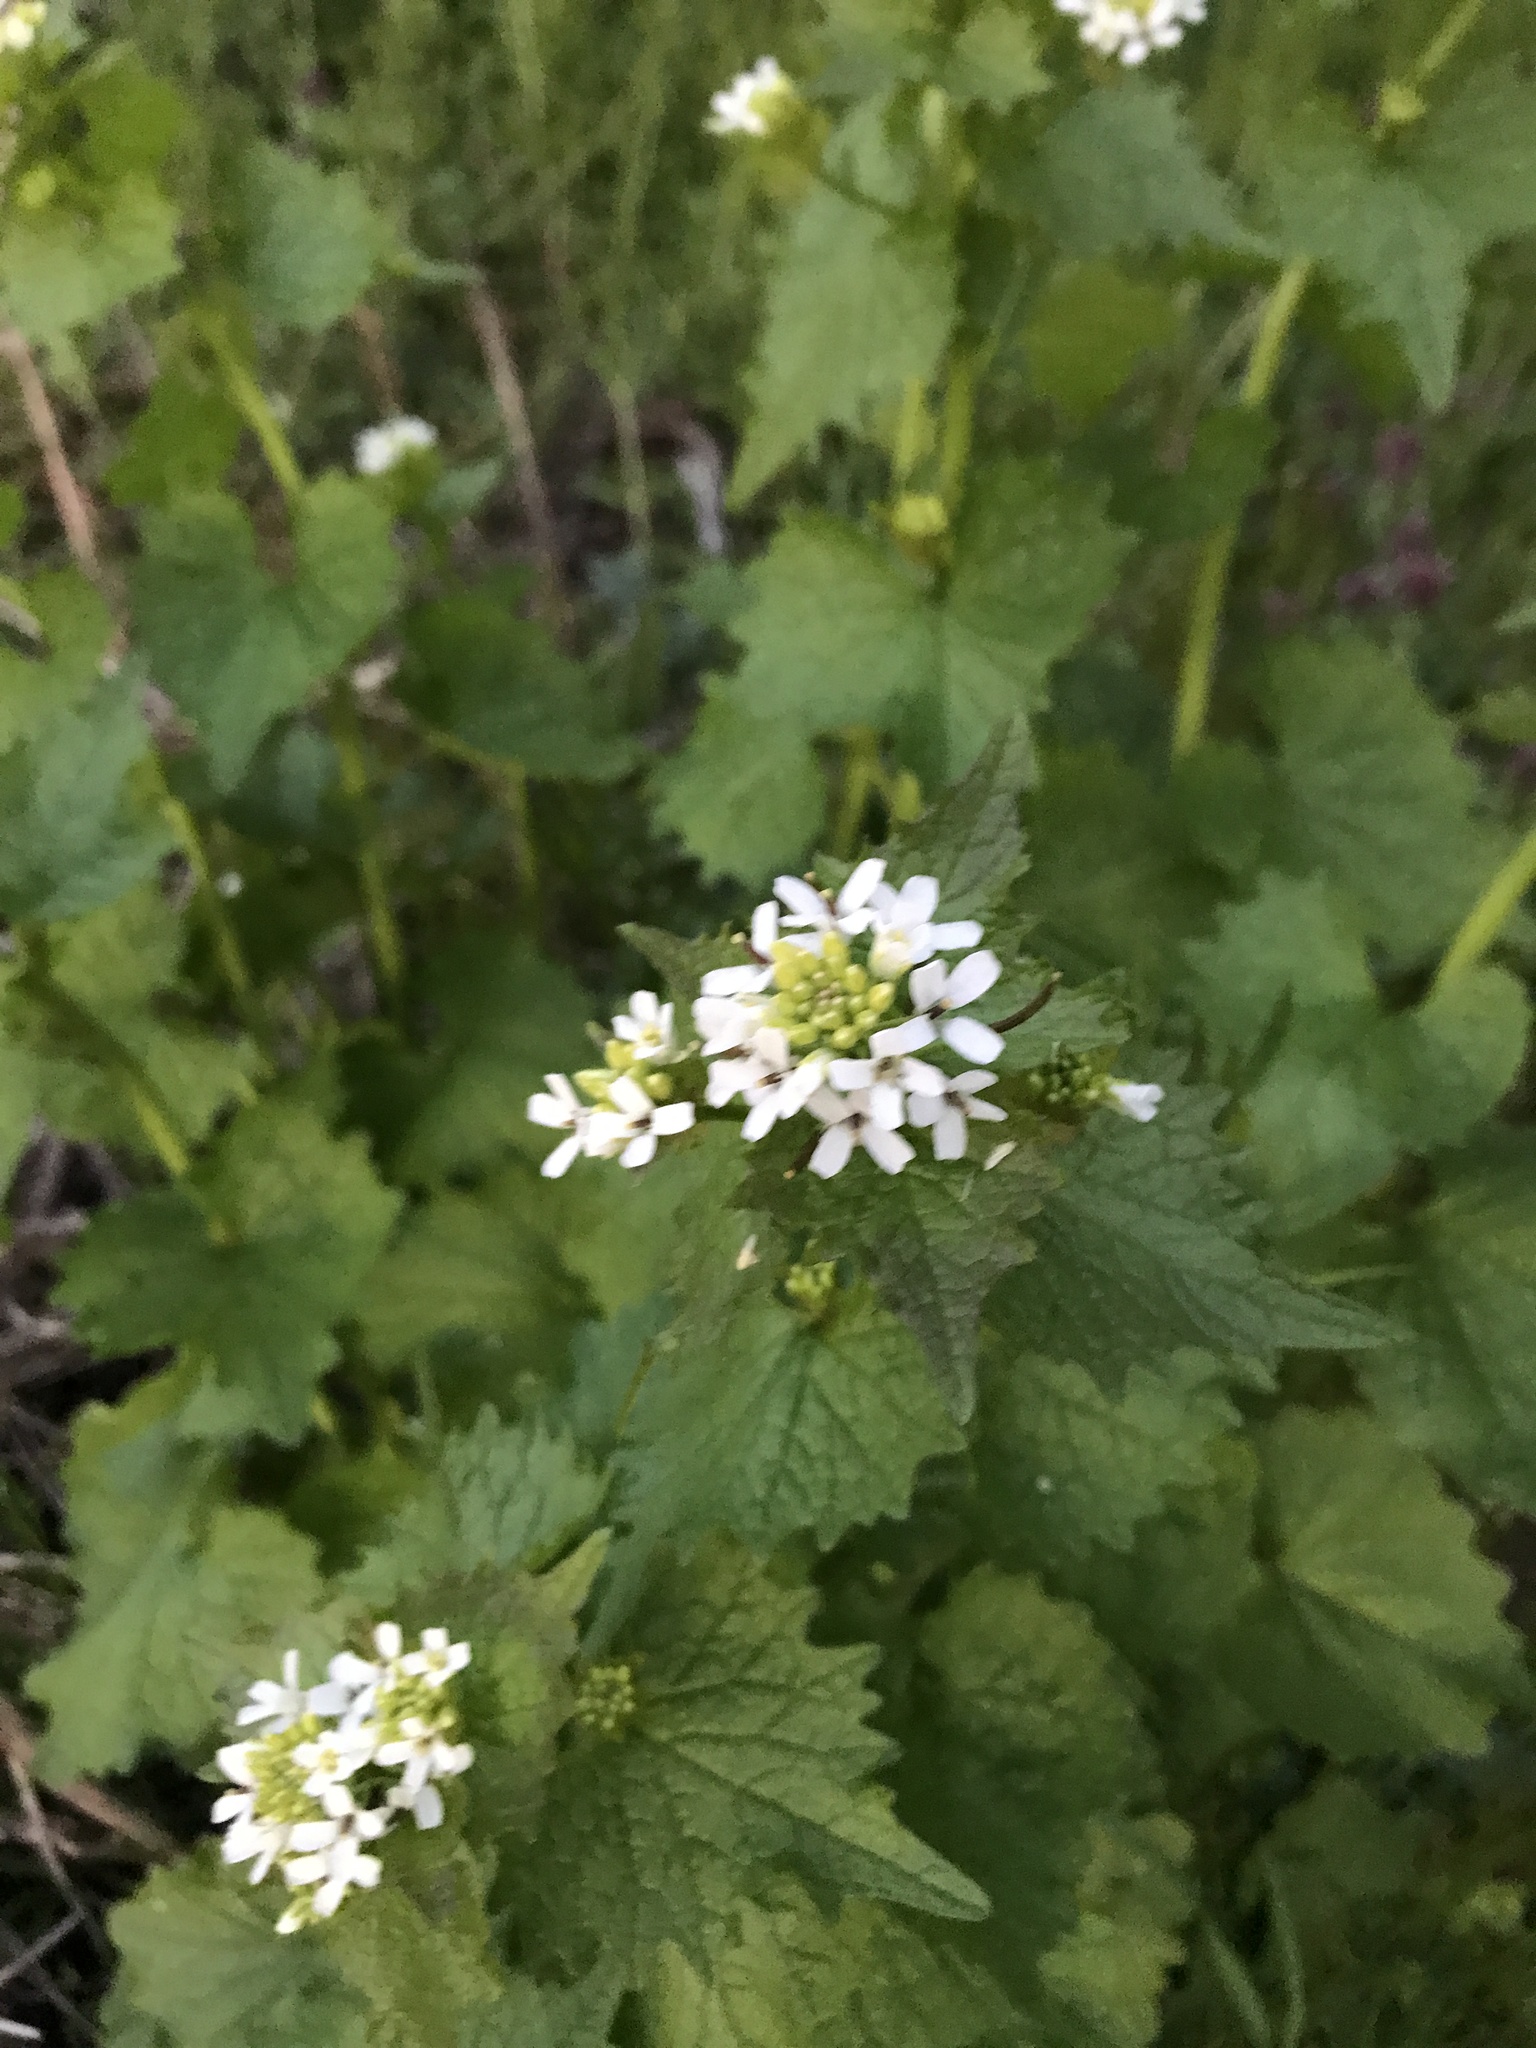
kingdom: Plantae
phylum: Tracheophyta
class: Magnoliopsida
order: Brassicales
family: Brassicaceae
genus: Alliaria
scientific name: Alliaria petiolata
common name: Garlic mustard
